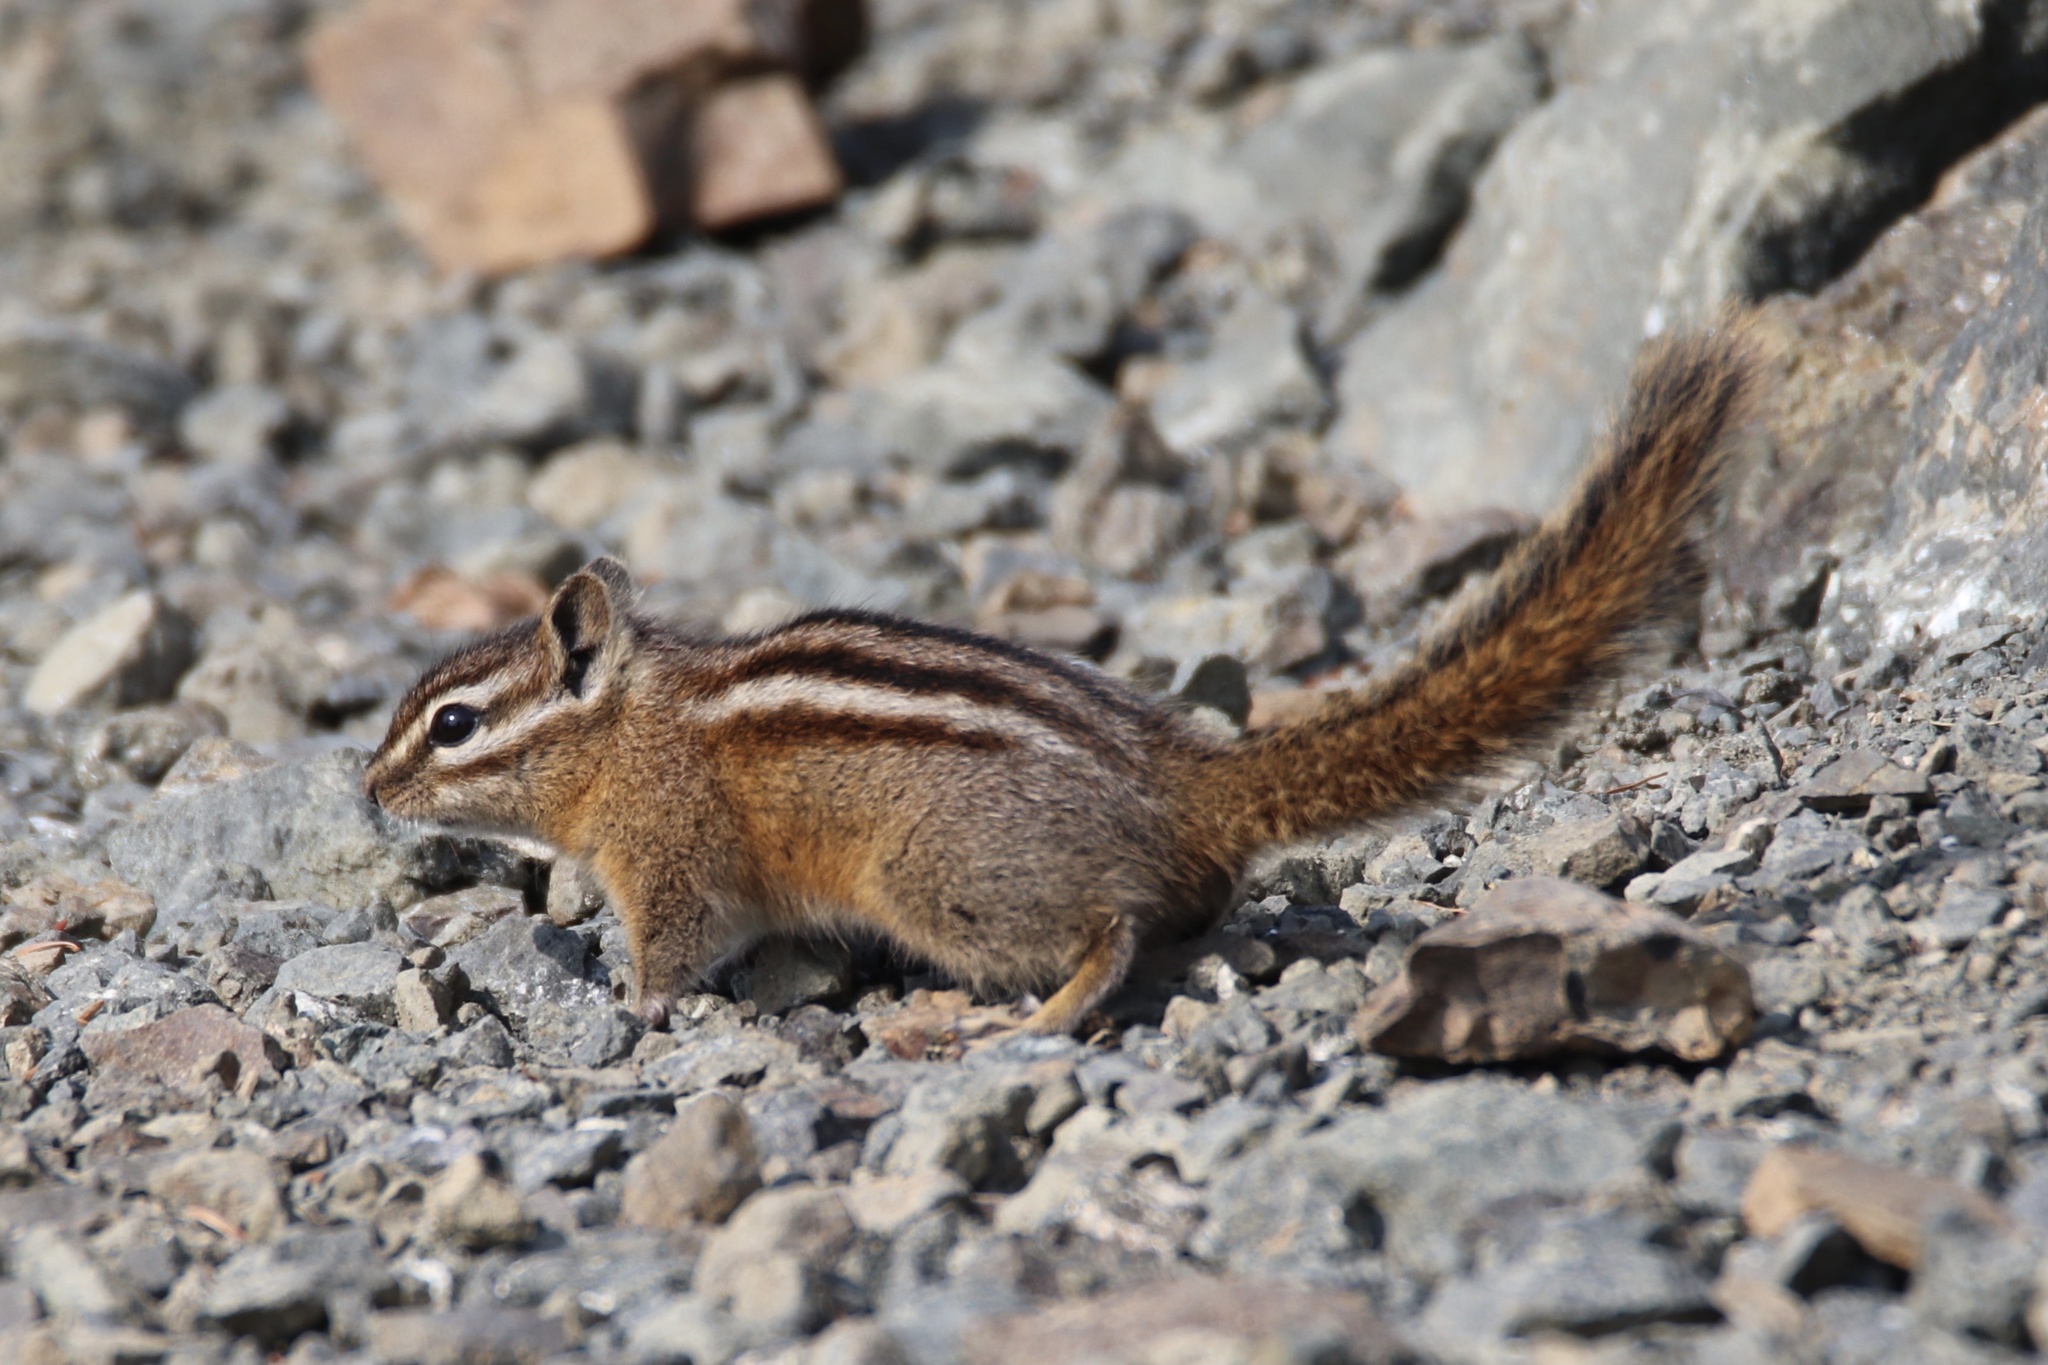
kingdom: Animalia
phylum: Chordata
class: Mammalia
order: Rodentia
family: Sciuridae
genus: Tamias
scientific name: Tamias amoenus
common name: Yellow-pine chipmunk
